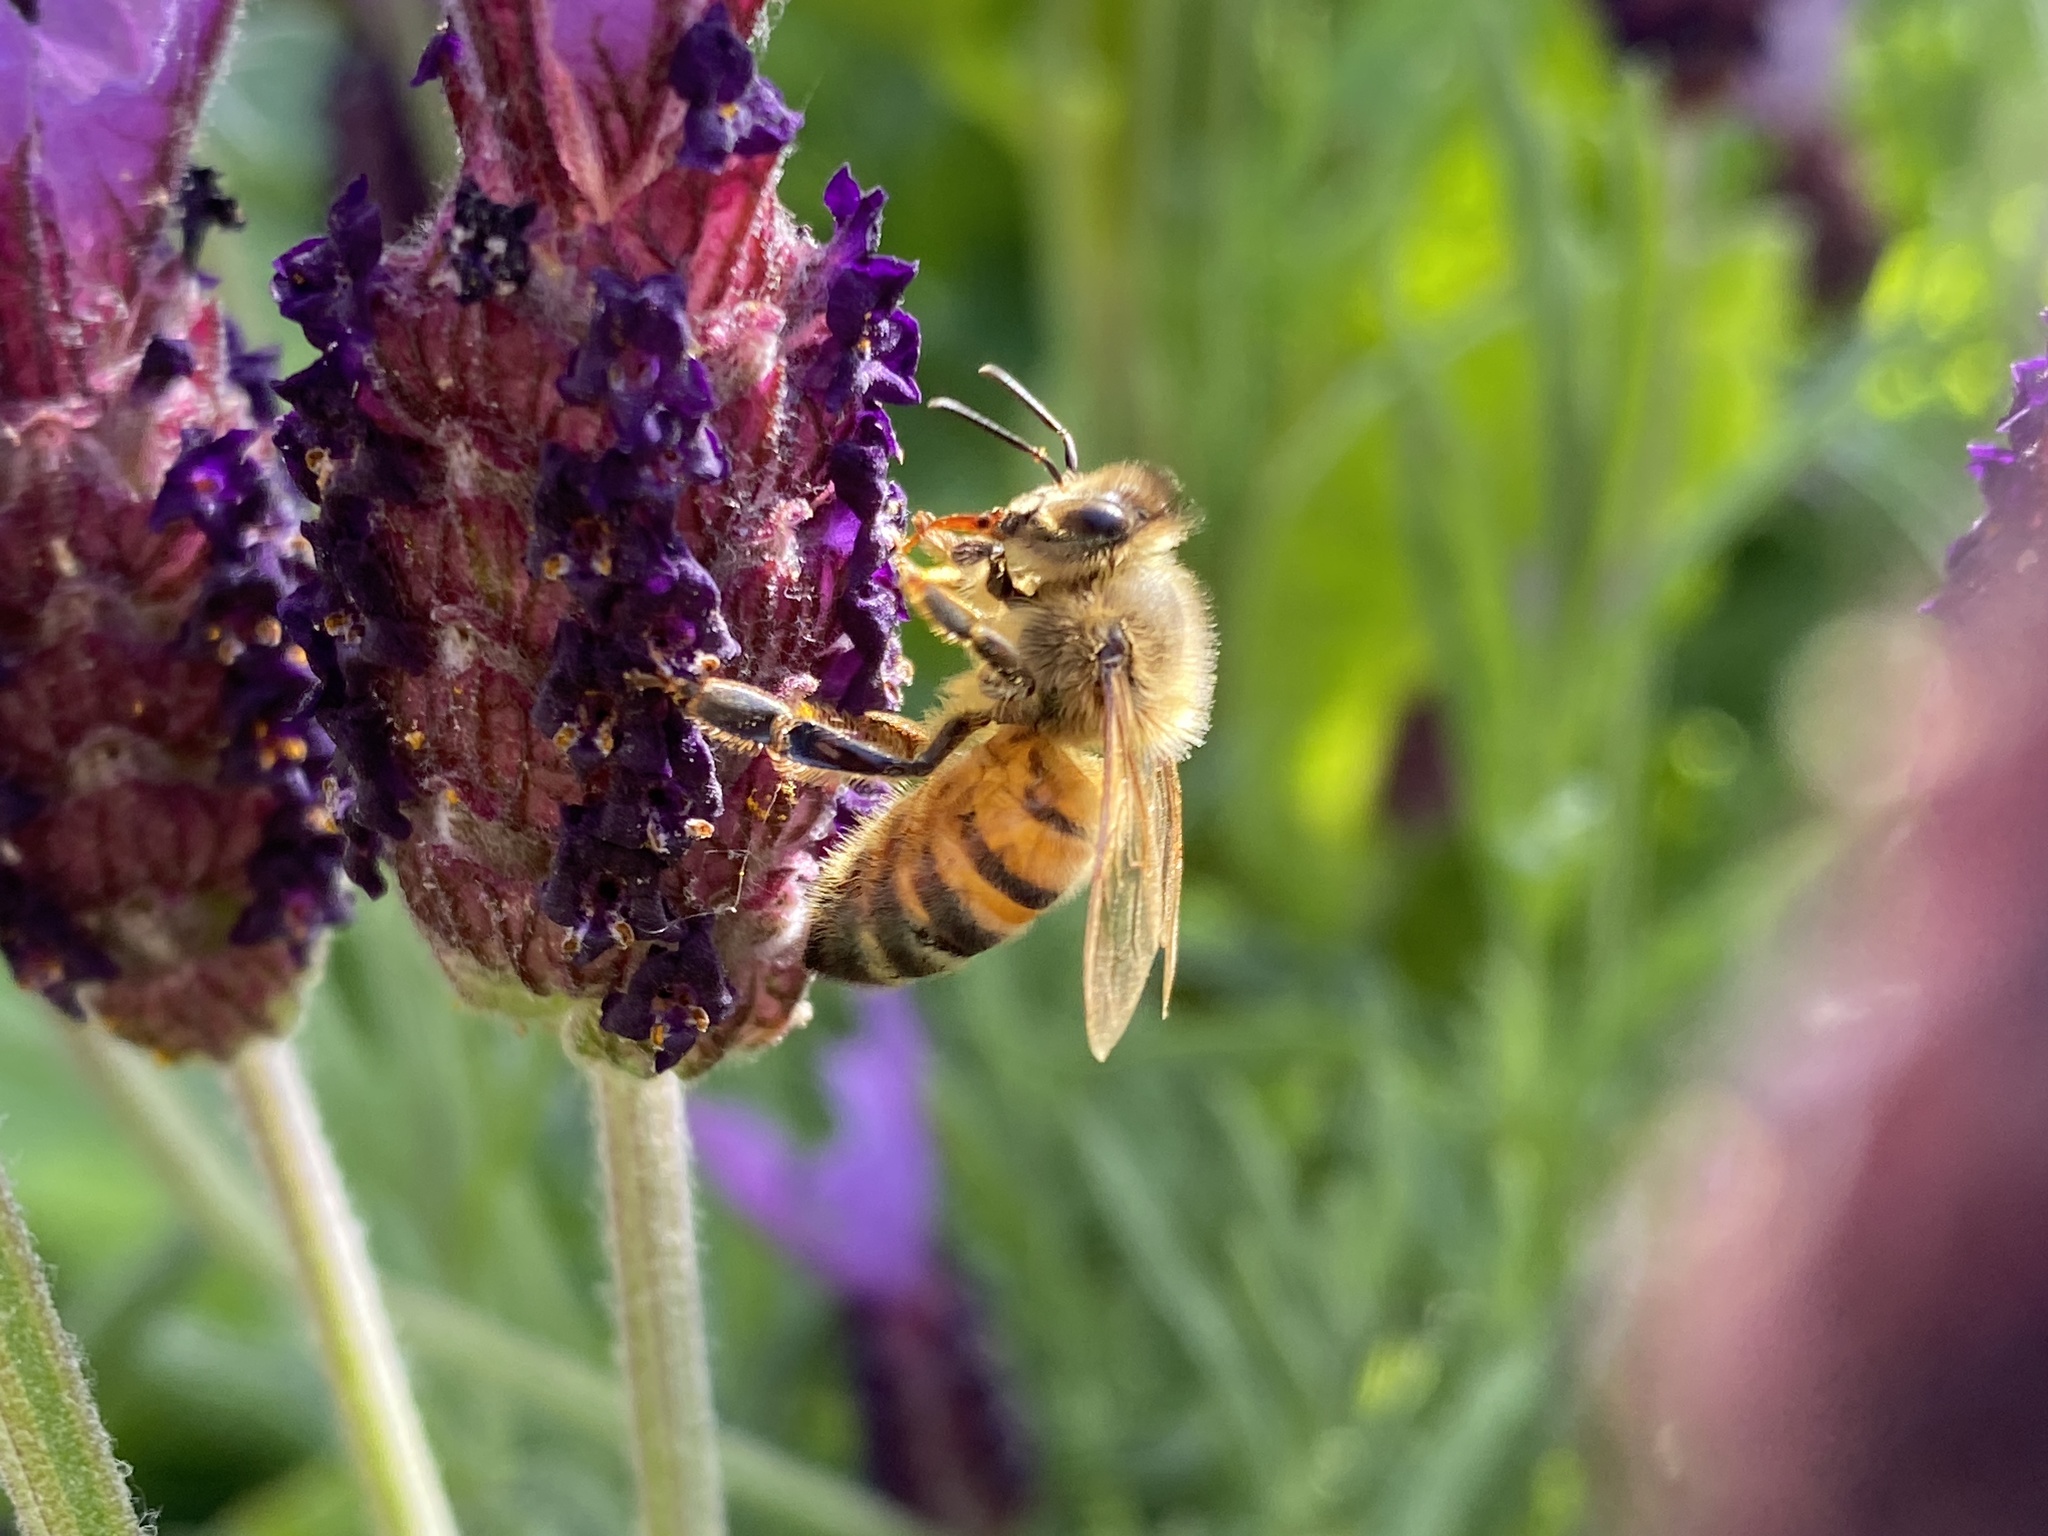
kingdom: Animalia
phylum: Arthropoda
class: Insecta
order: Hymenoptera
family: Apidae
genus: Apis
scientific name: Apis mellifera
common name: Honey bee
